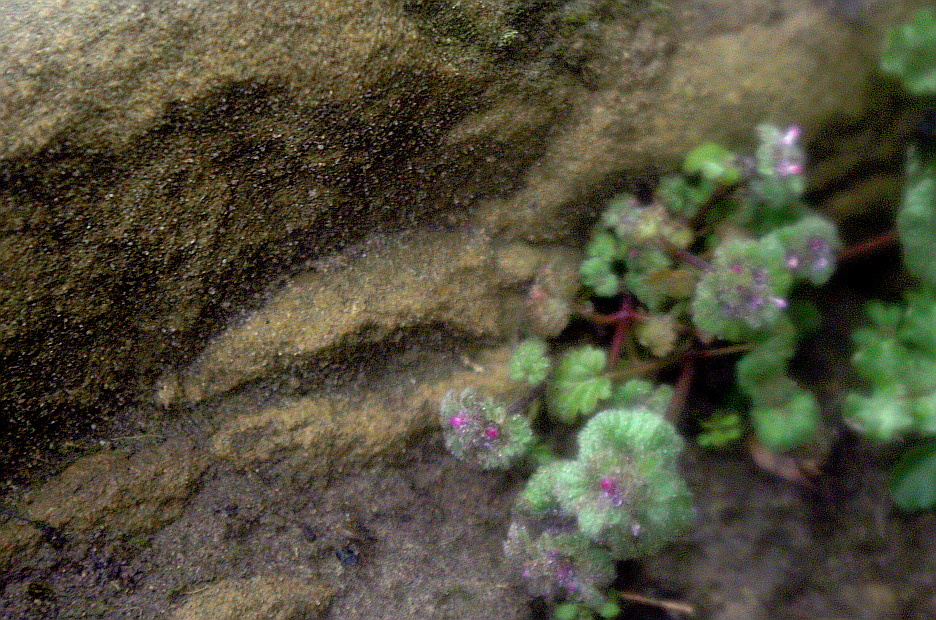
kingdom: Plantae
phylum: Tracheophyta
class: Magnoliopsida
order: Lamiales
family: Lamiaceae
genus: Lamium
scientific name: Lamium amplexicaule
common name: Henbit dead-nettle
